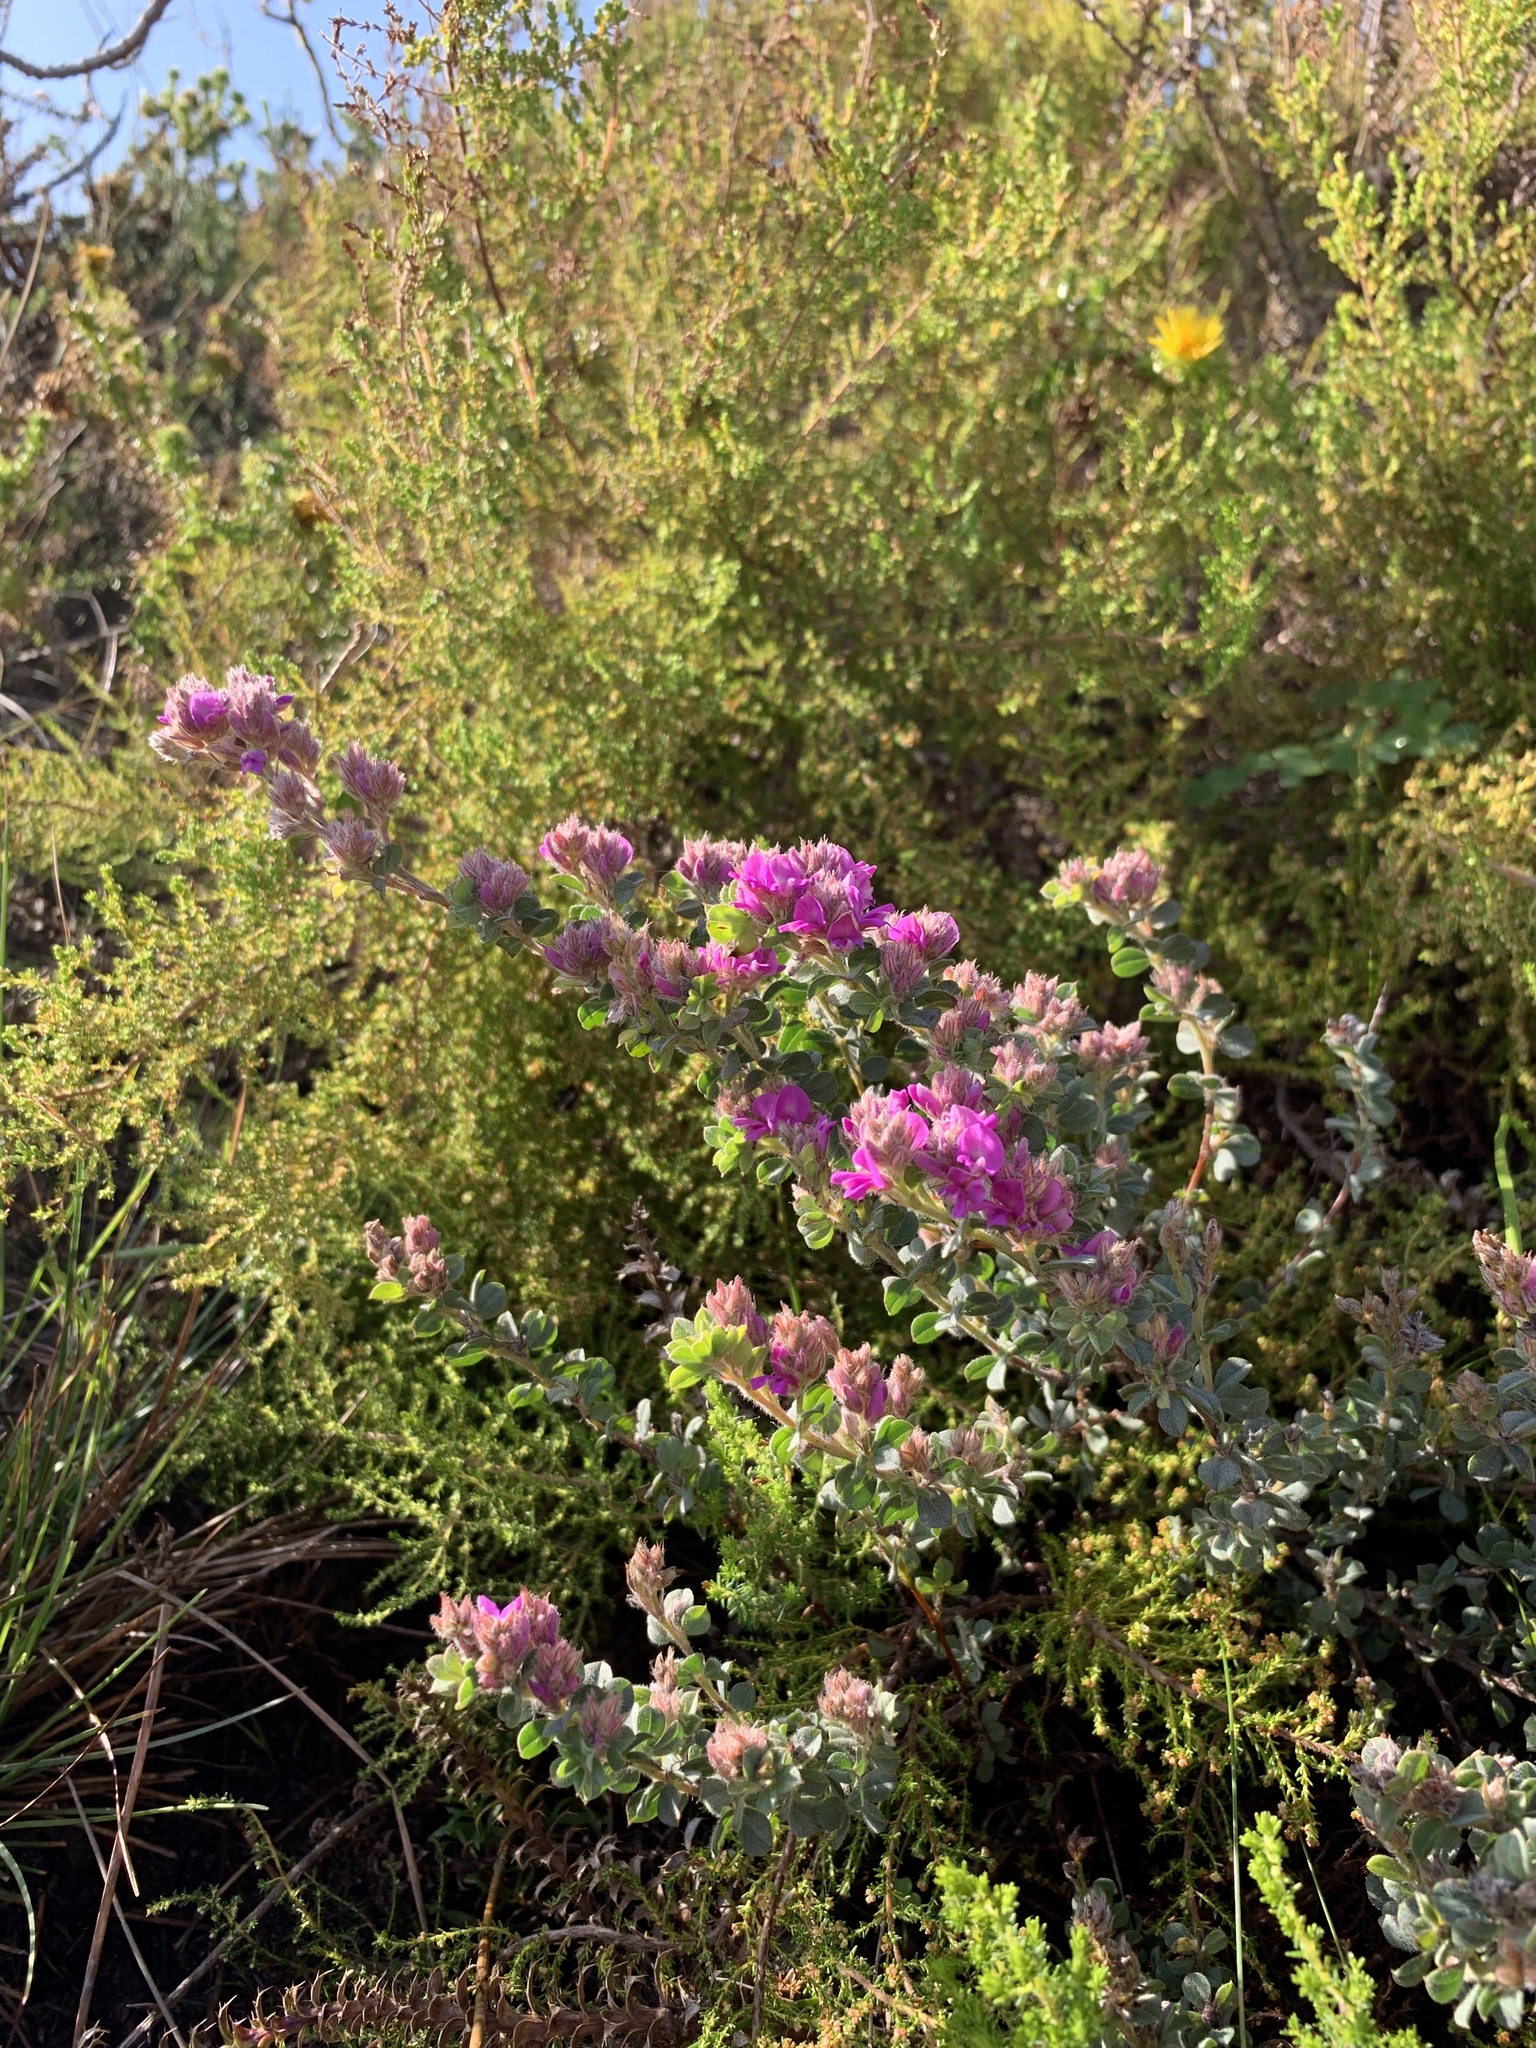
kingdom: Plantae
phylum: Tracheophyta
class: Magnoliopsida
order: Fabales
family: Fabaceae
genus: Indigofera
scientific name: Indigofera glomerata
